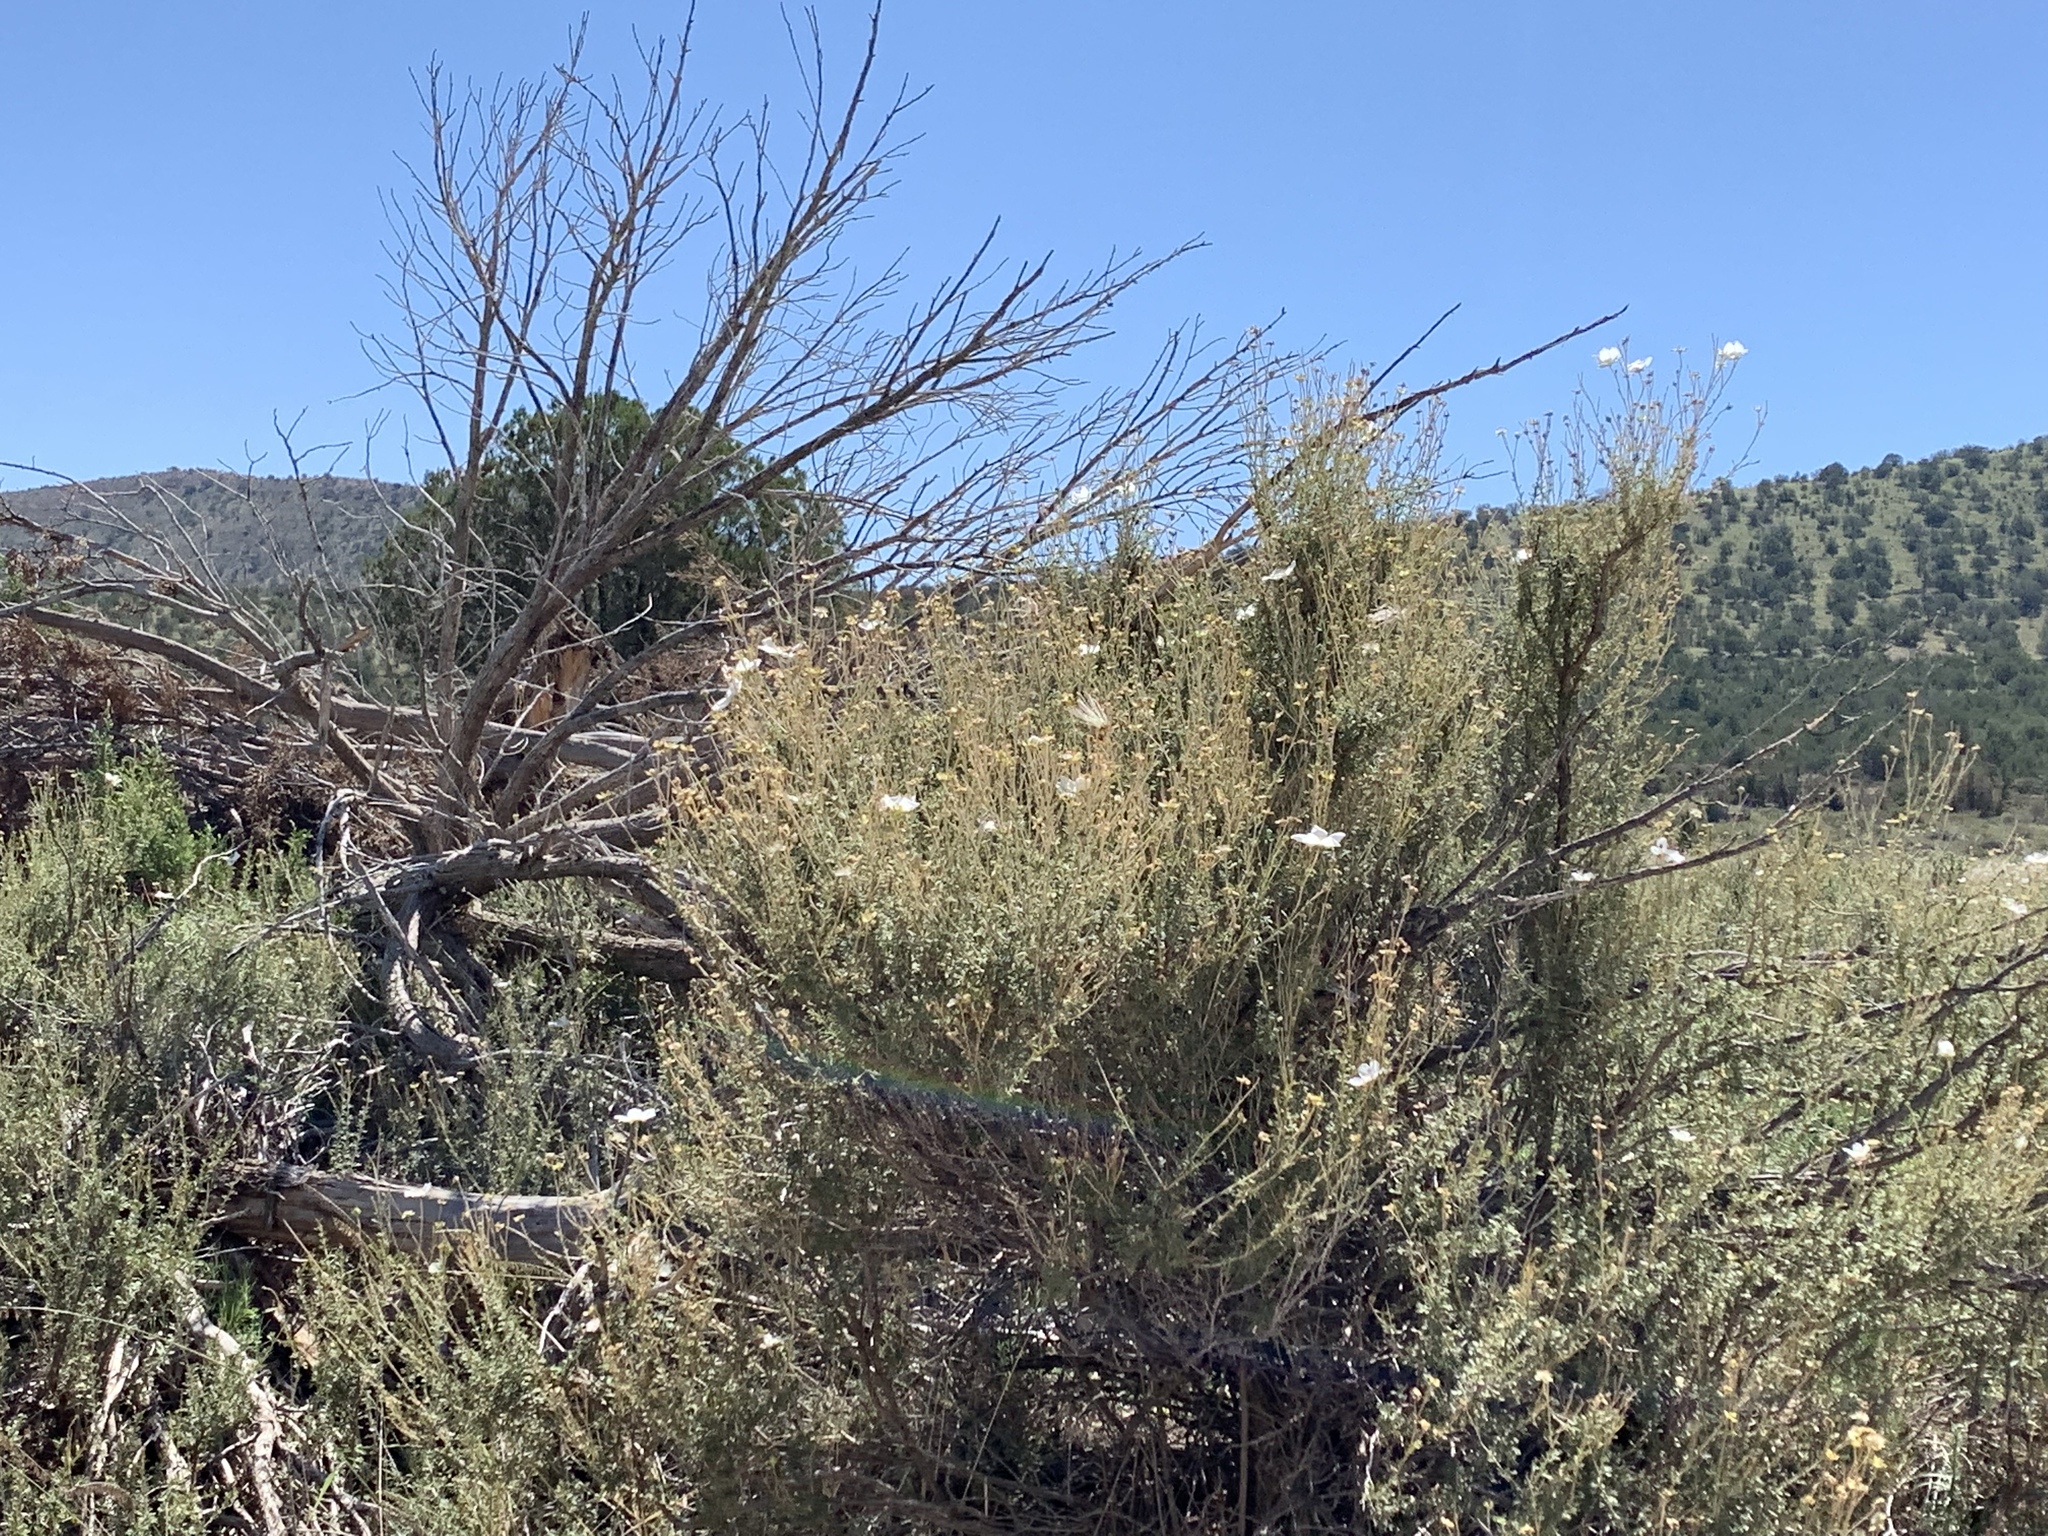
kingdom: Plantae
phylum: Tracheophyta
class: Magnoliopsida
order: Rosales
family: Rosaceae
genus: Fallugia
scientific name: Fallugia paradoxa
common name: Apache-plume
